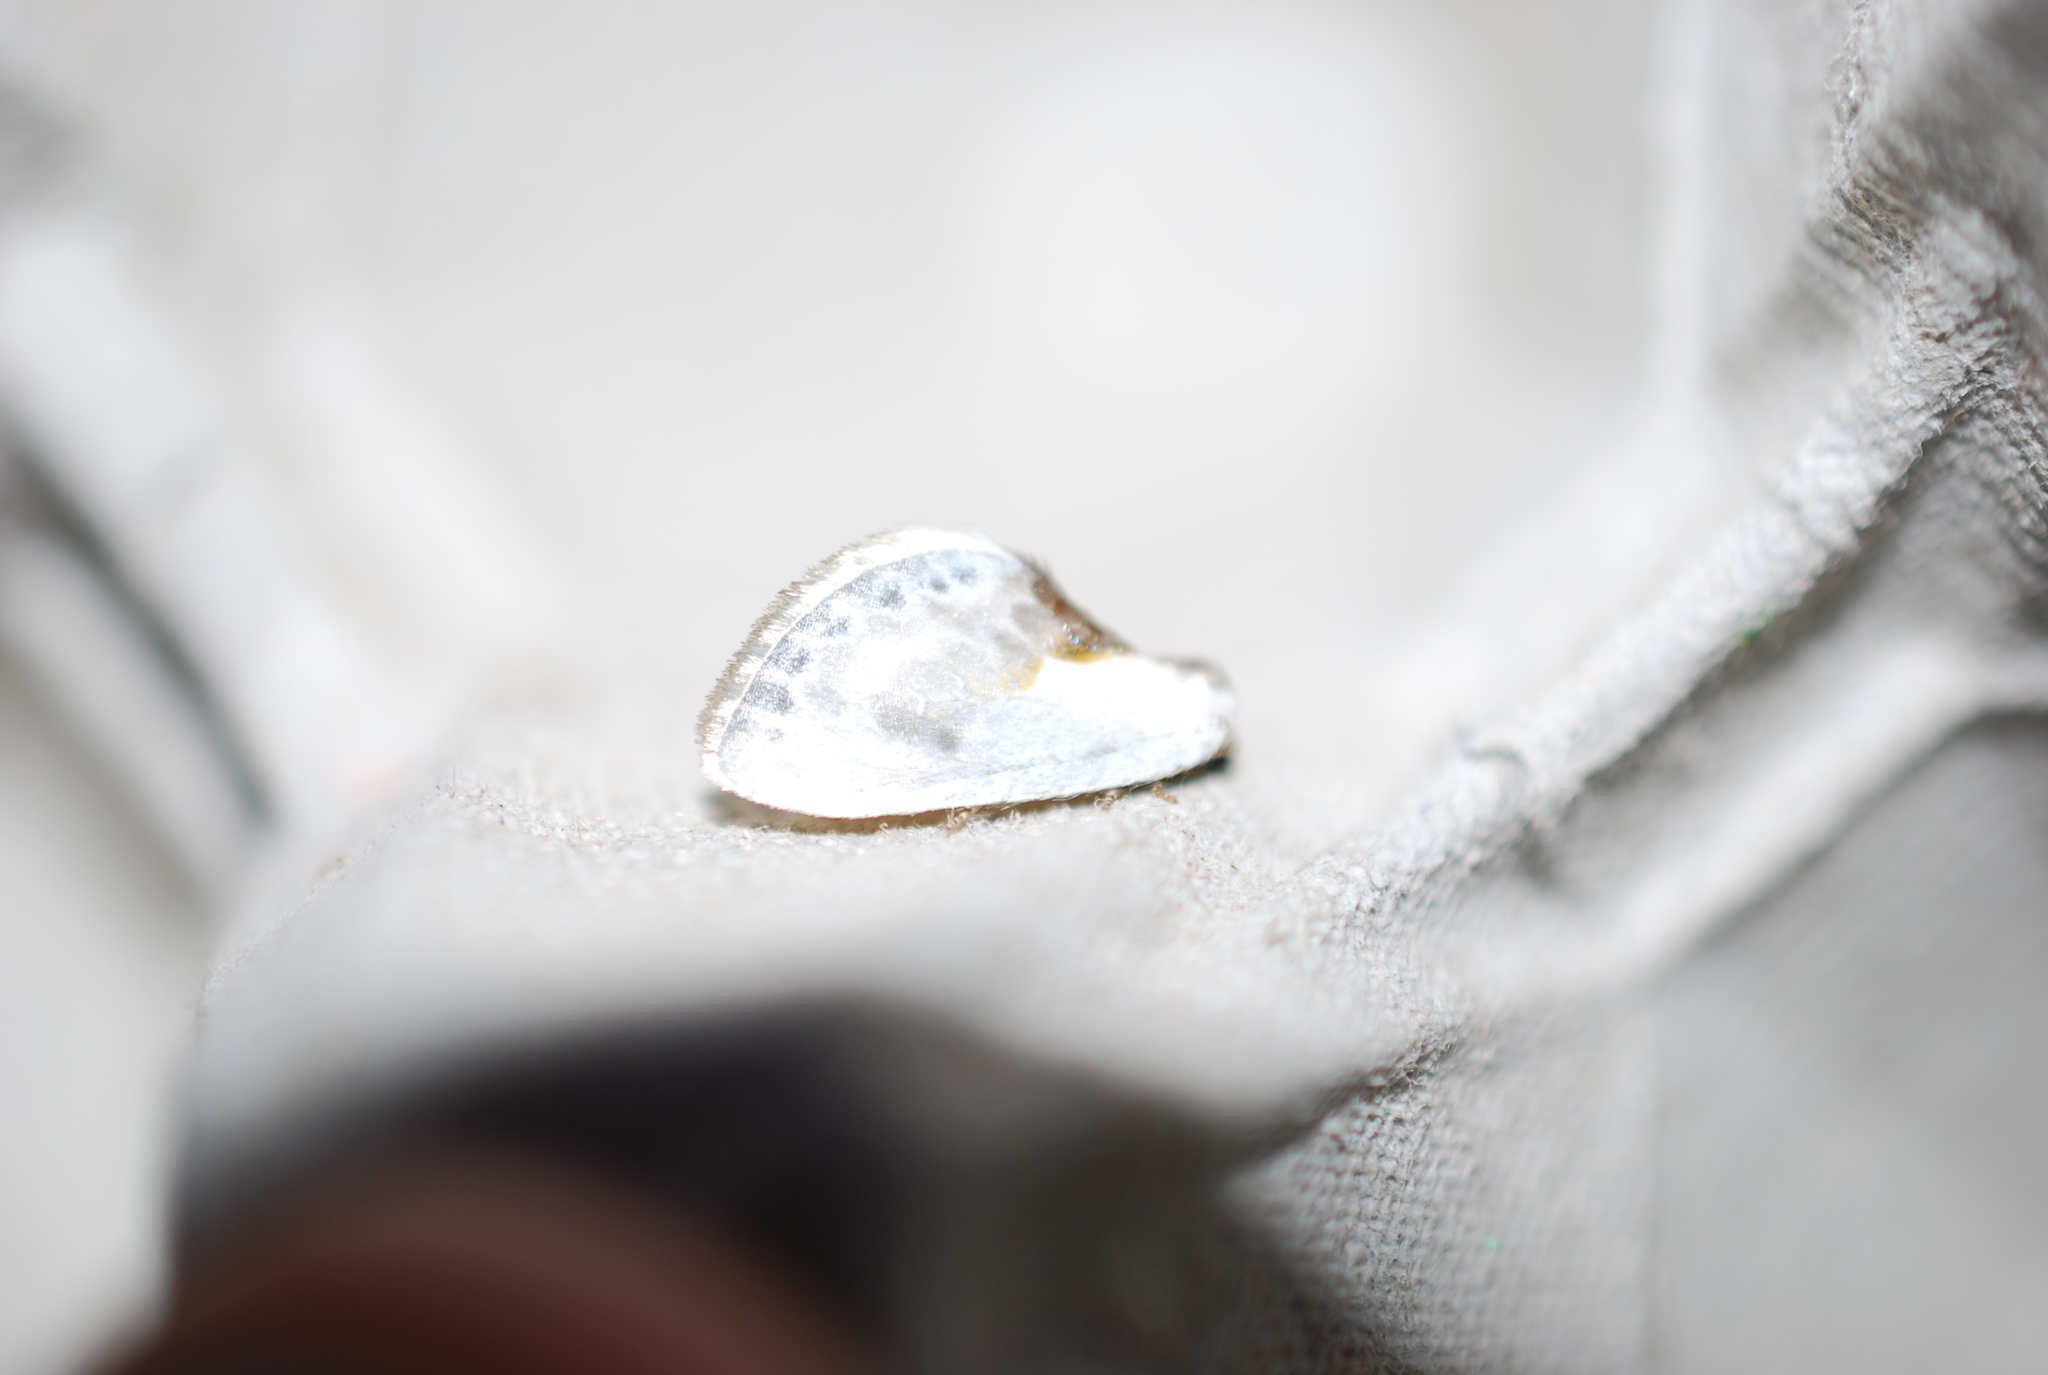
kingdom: Animalia
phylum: Arthropoda
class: Insecta
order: Lepidoptera
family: Drepanidae
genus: Cilix
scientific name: Cilix glaucata
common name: Chinese character
